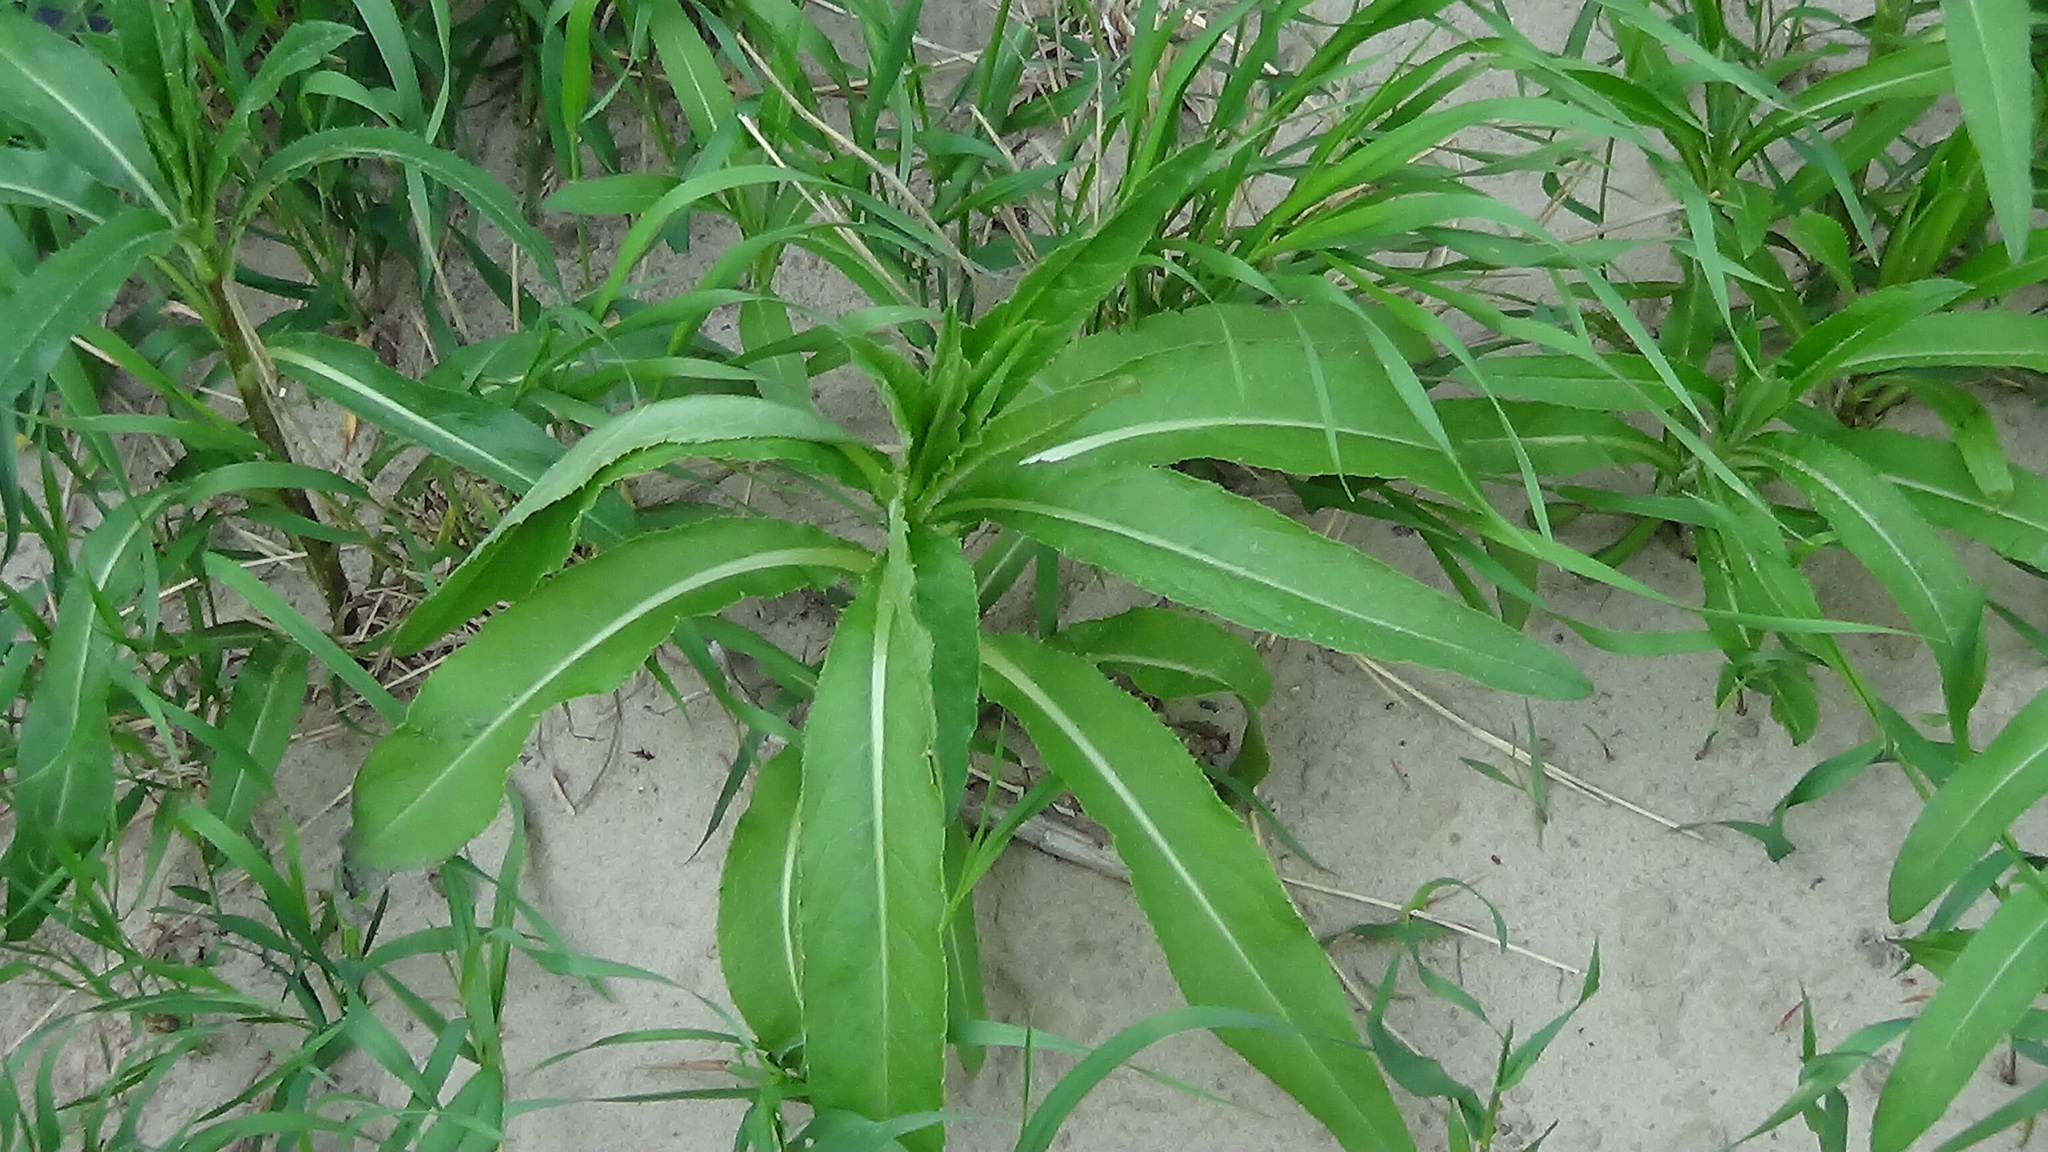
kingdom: Plantae
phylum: Tracheophyta
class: Magnoliopsida
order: Asterales
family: Asteraceae
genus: Cirsium
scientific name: Cirsium arvense
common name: Creeping thistle
